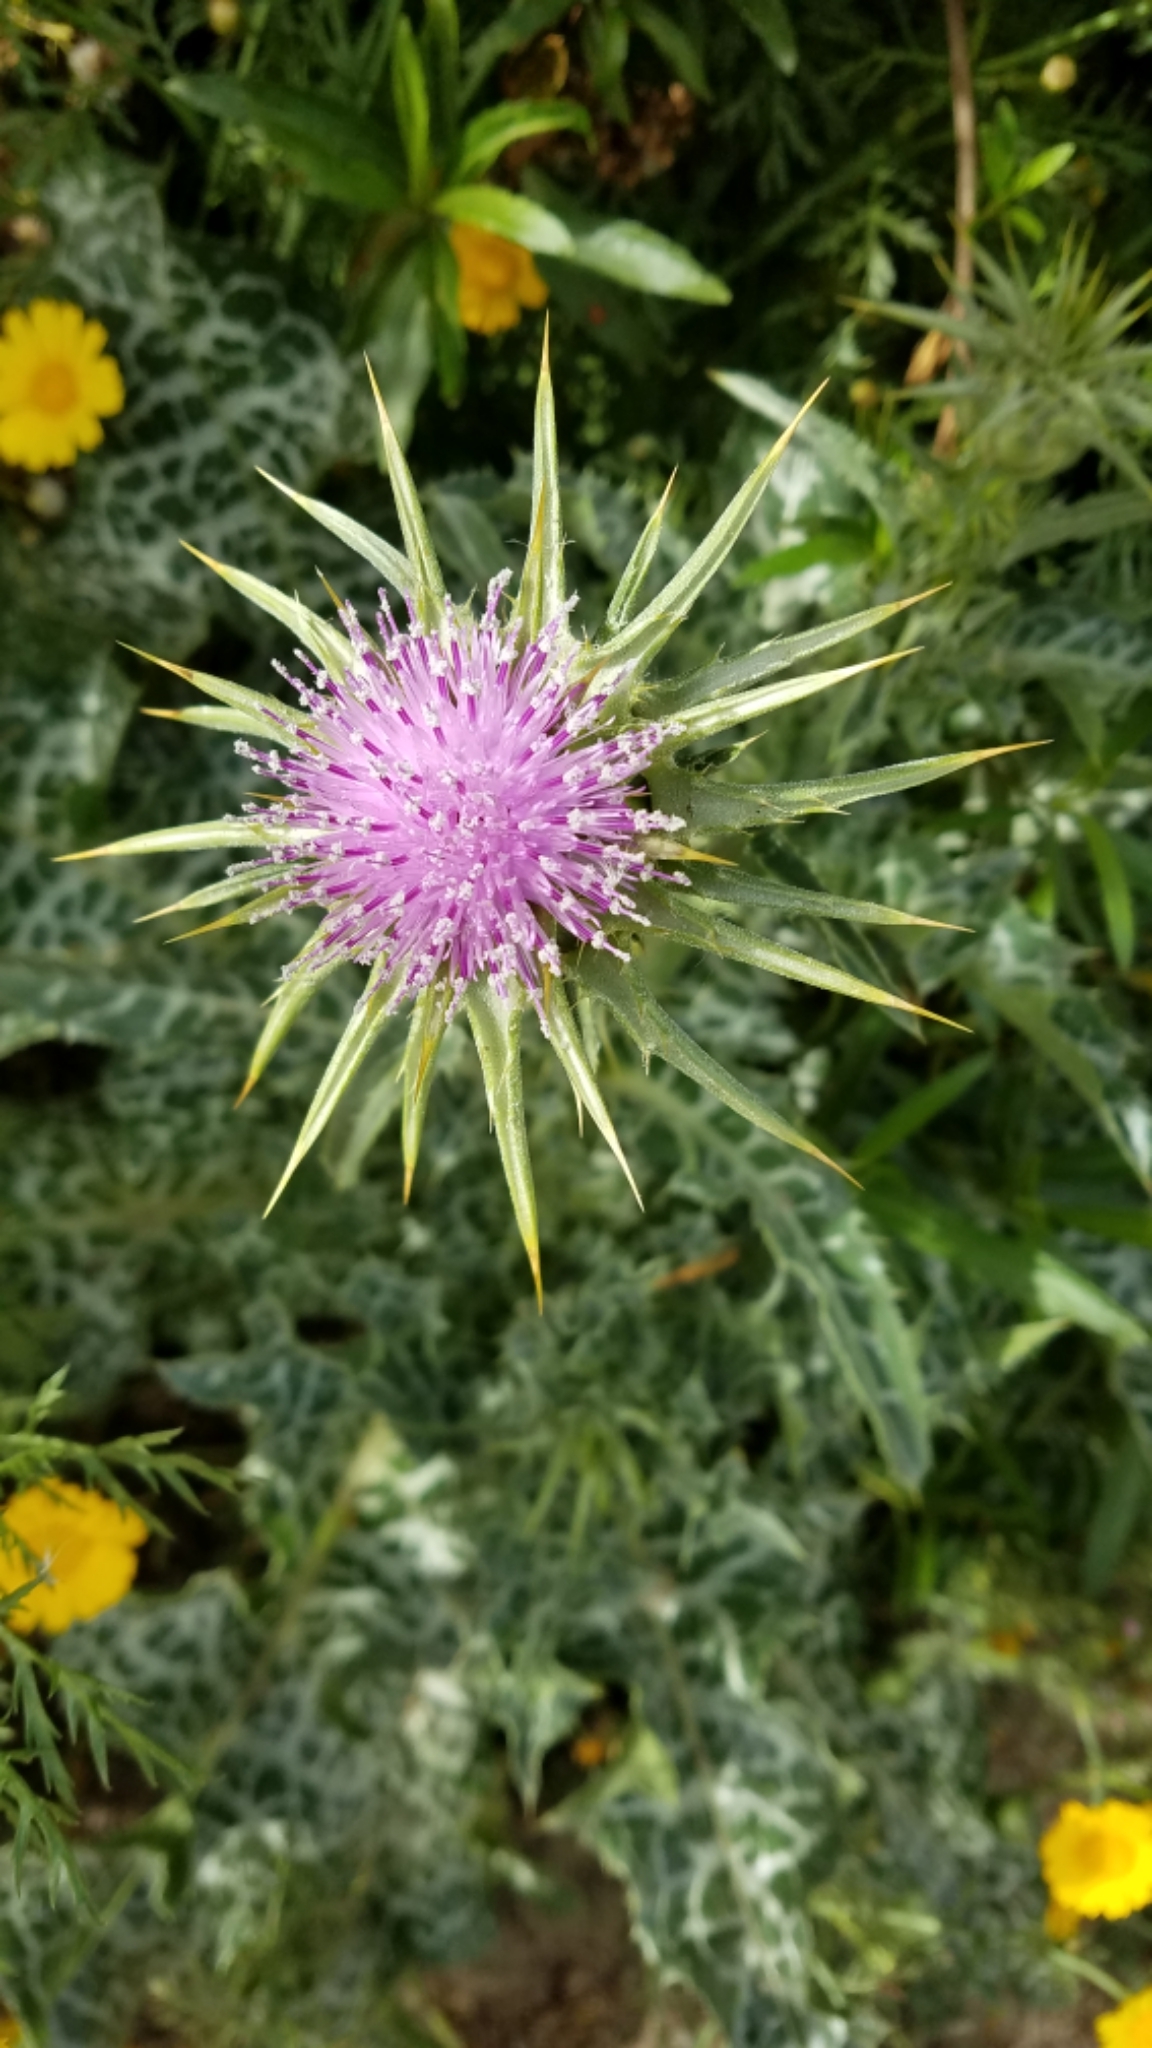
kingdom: Plantae
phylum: Tracheophyta
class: Magnoliopsida
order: Asterales
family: Asteraceae
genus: Silybum
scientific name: Silybum marianum
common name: Milk thistle
